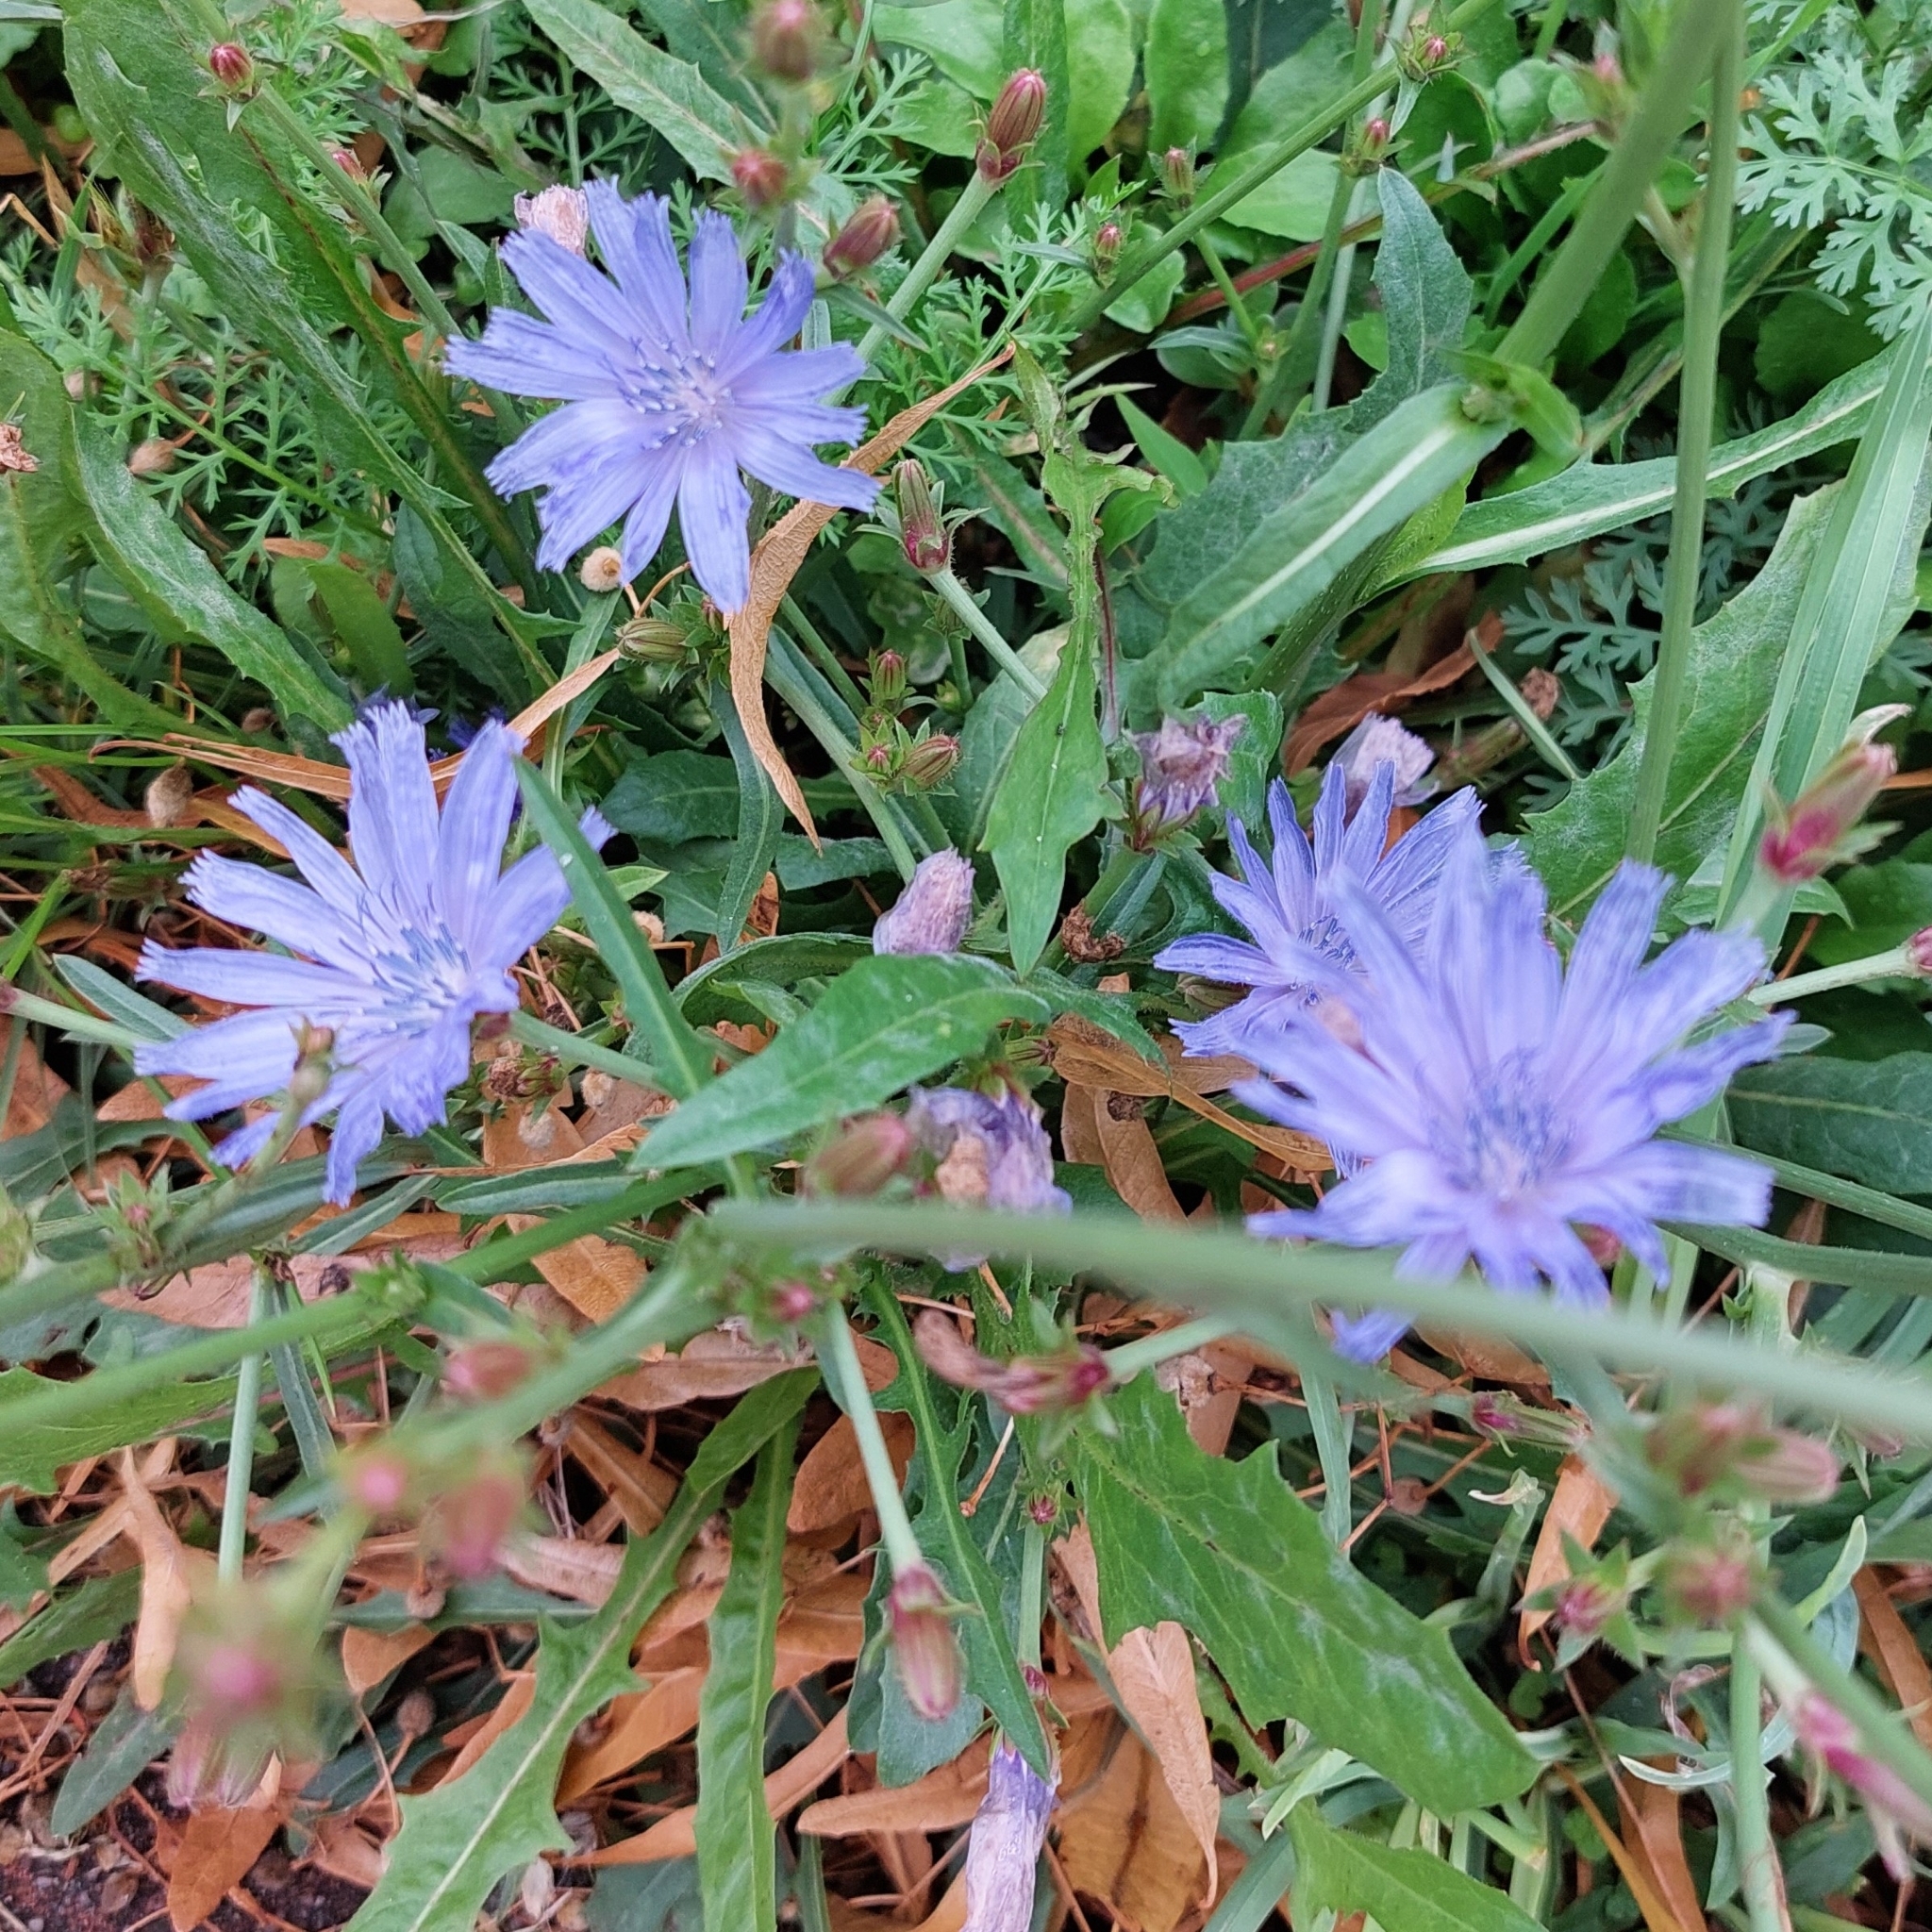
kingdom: Plantae
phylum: Tracheophyta
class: Magnoliopsida
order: Asterales
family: Asteraceae
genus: Cichorium
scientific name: Cichorium intybus
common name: Chicory
